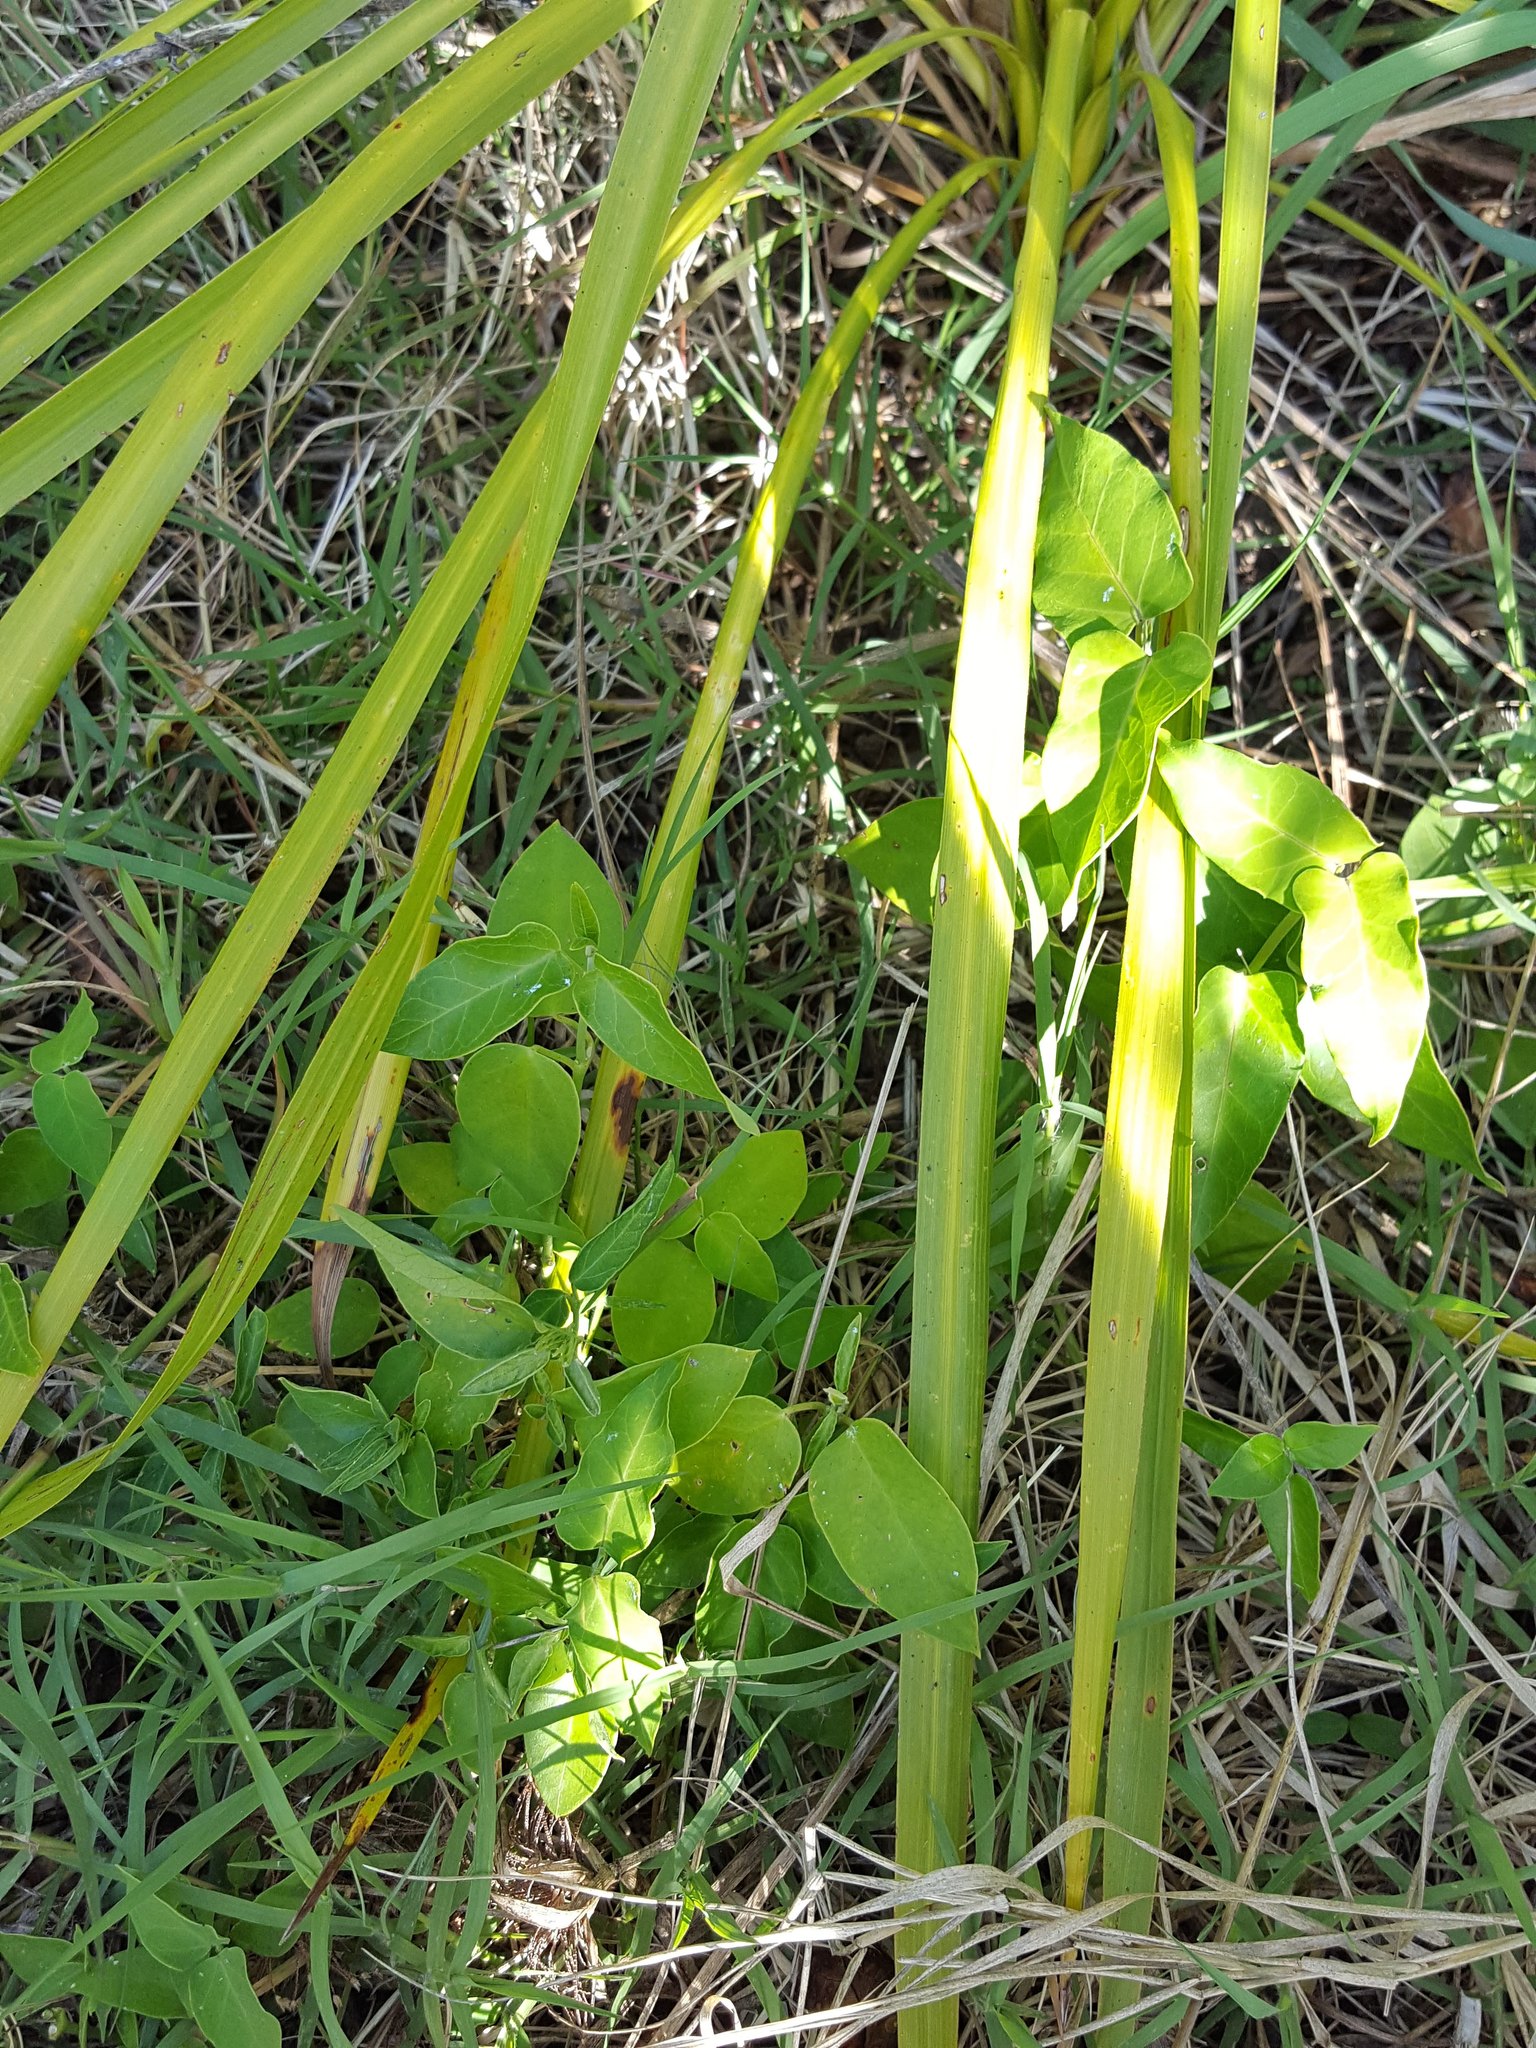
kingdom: Plantae
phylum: Tracheophyta
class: Magnoliopsida
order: Gentianales
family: Apocynaceae
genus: Araujia
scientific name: Araujia sericifera
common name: White bladderflower
